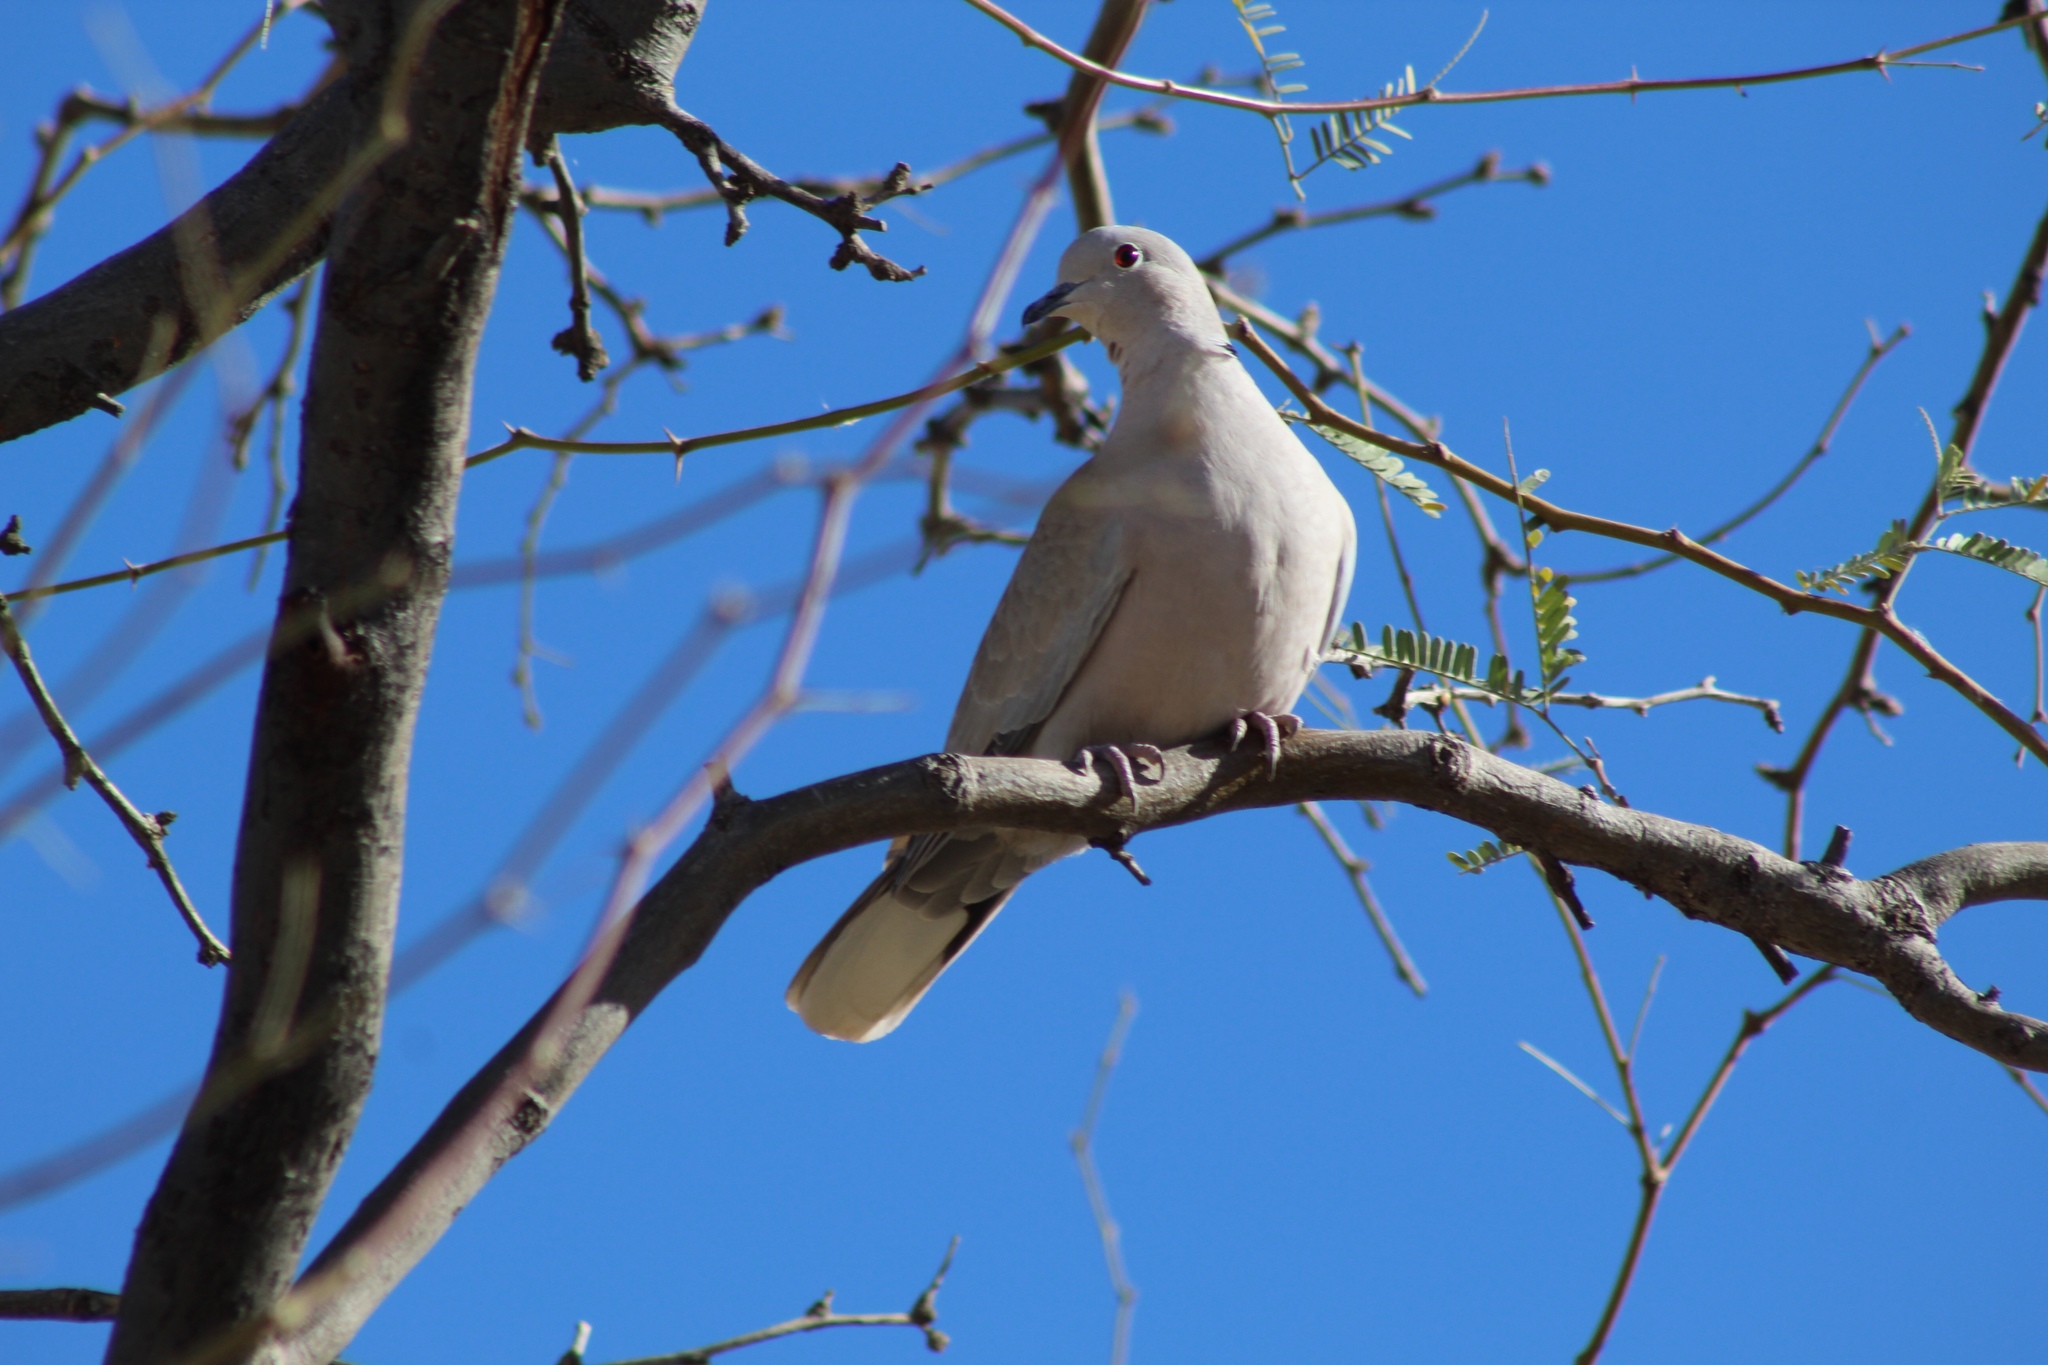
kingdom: Animalia
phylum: Chordata
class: Aves
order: Columbiformes
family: Columbidae
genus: Streptopelia
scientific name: Streptopelia decaocto
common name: Eurasian collared dove
